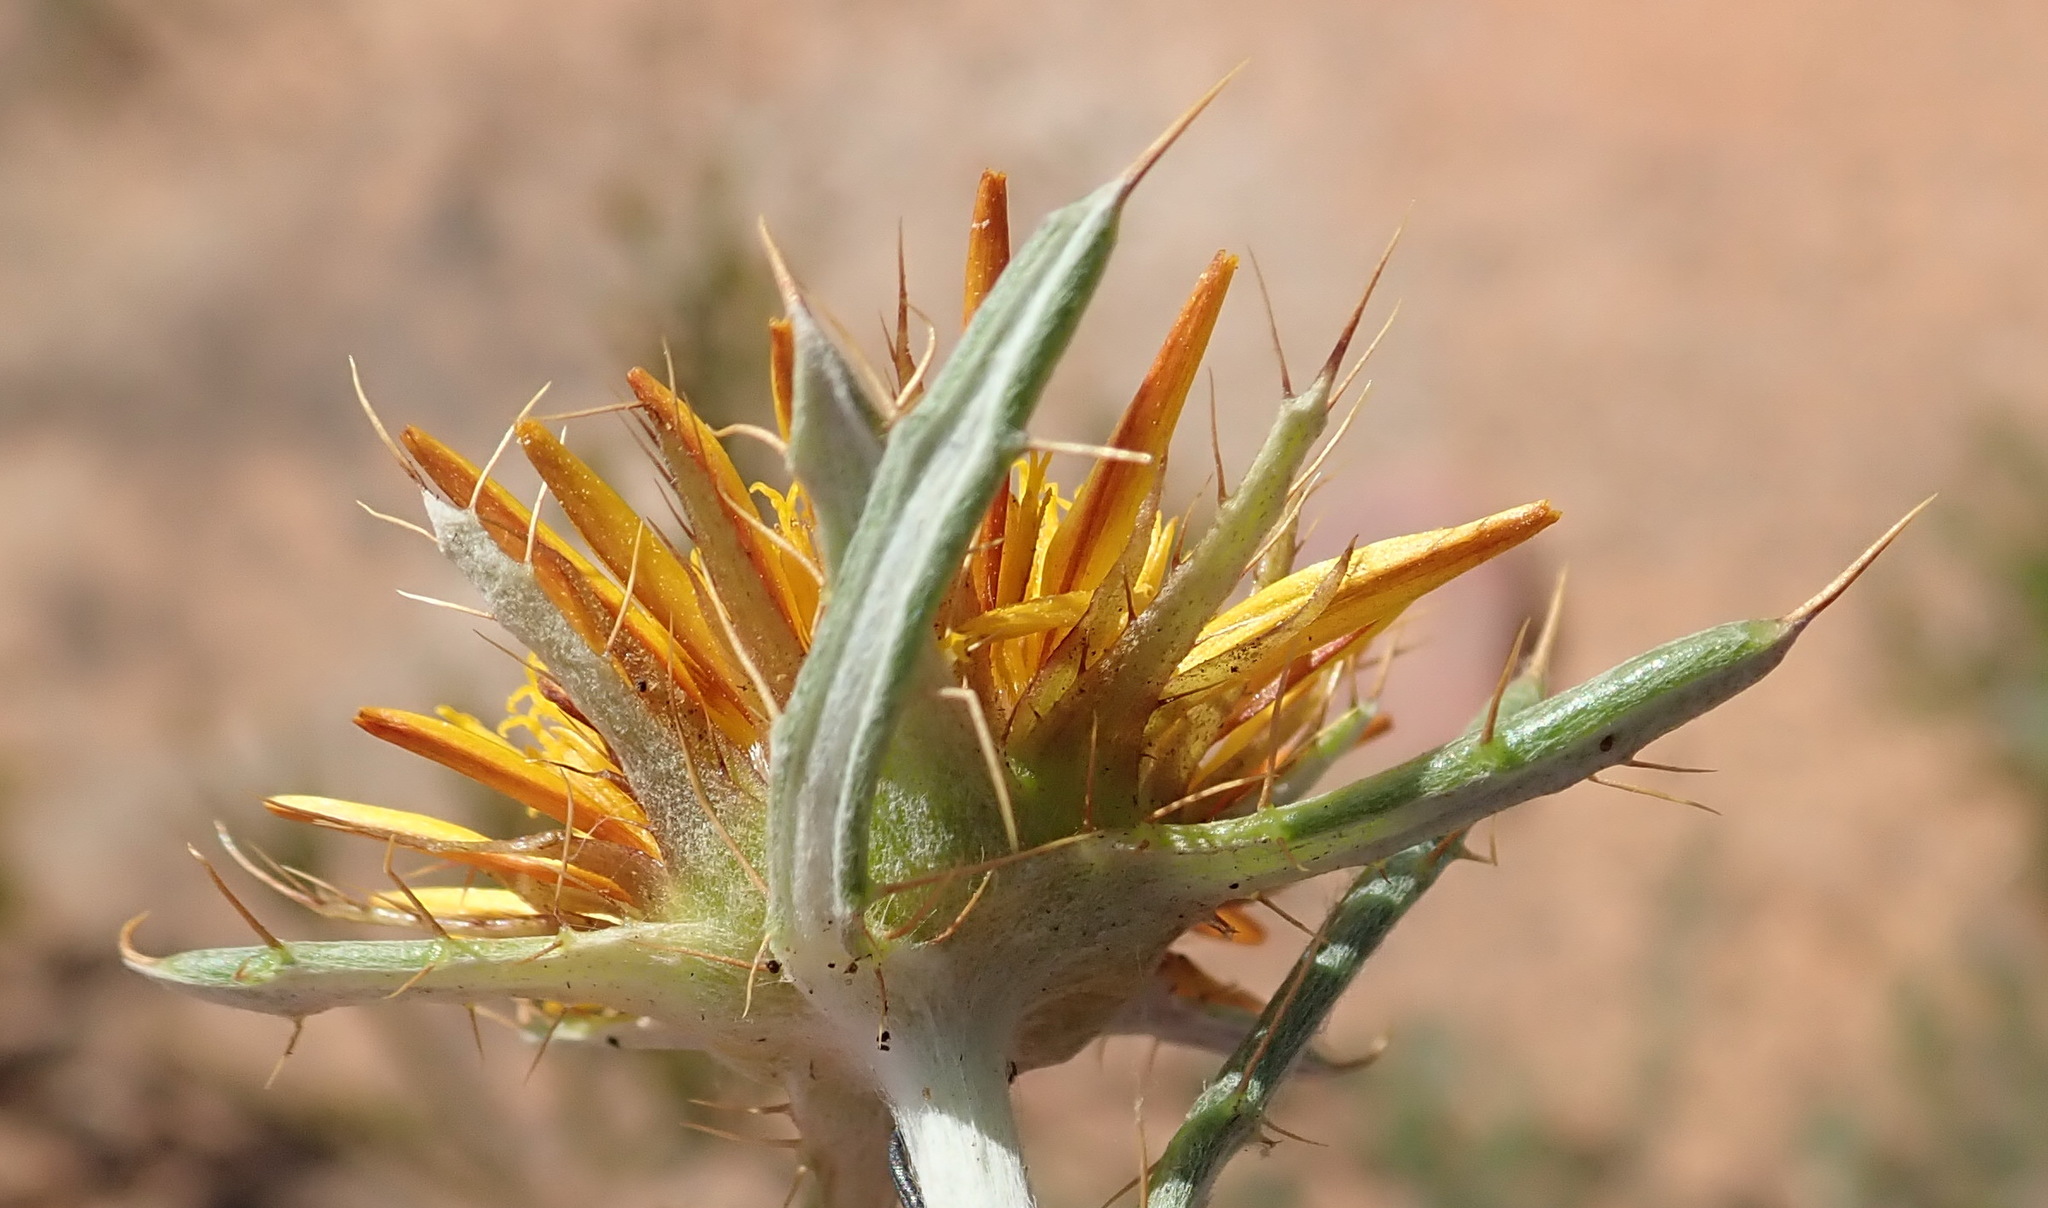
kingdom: Plantae
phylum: Tracheophyta
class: Magnoliopsida
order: Asterales
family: Asteraceae
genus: Berkheya
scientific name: Berkheya angustifolia
